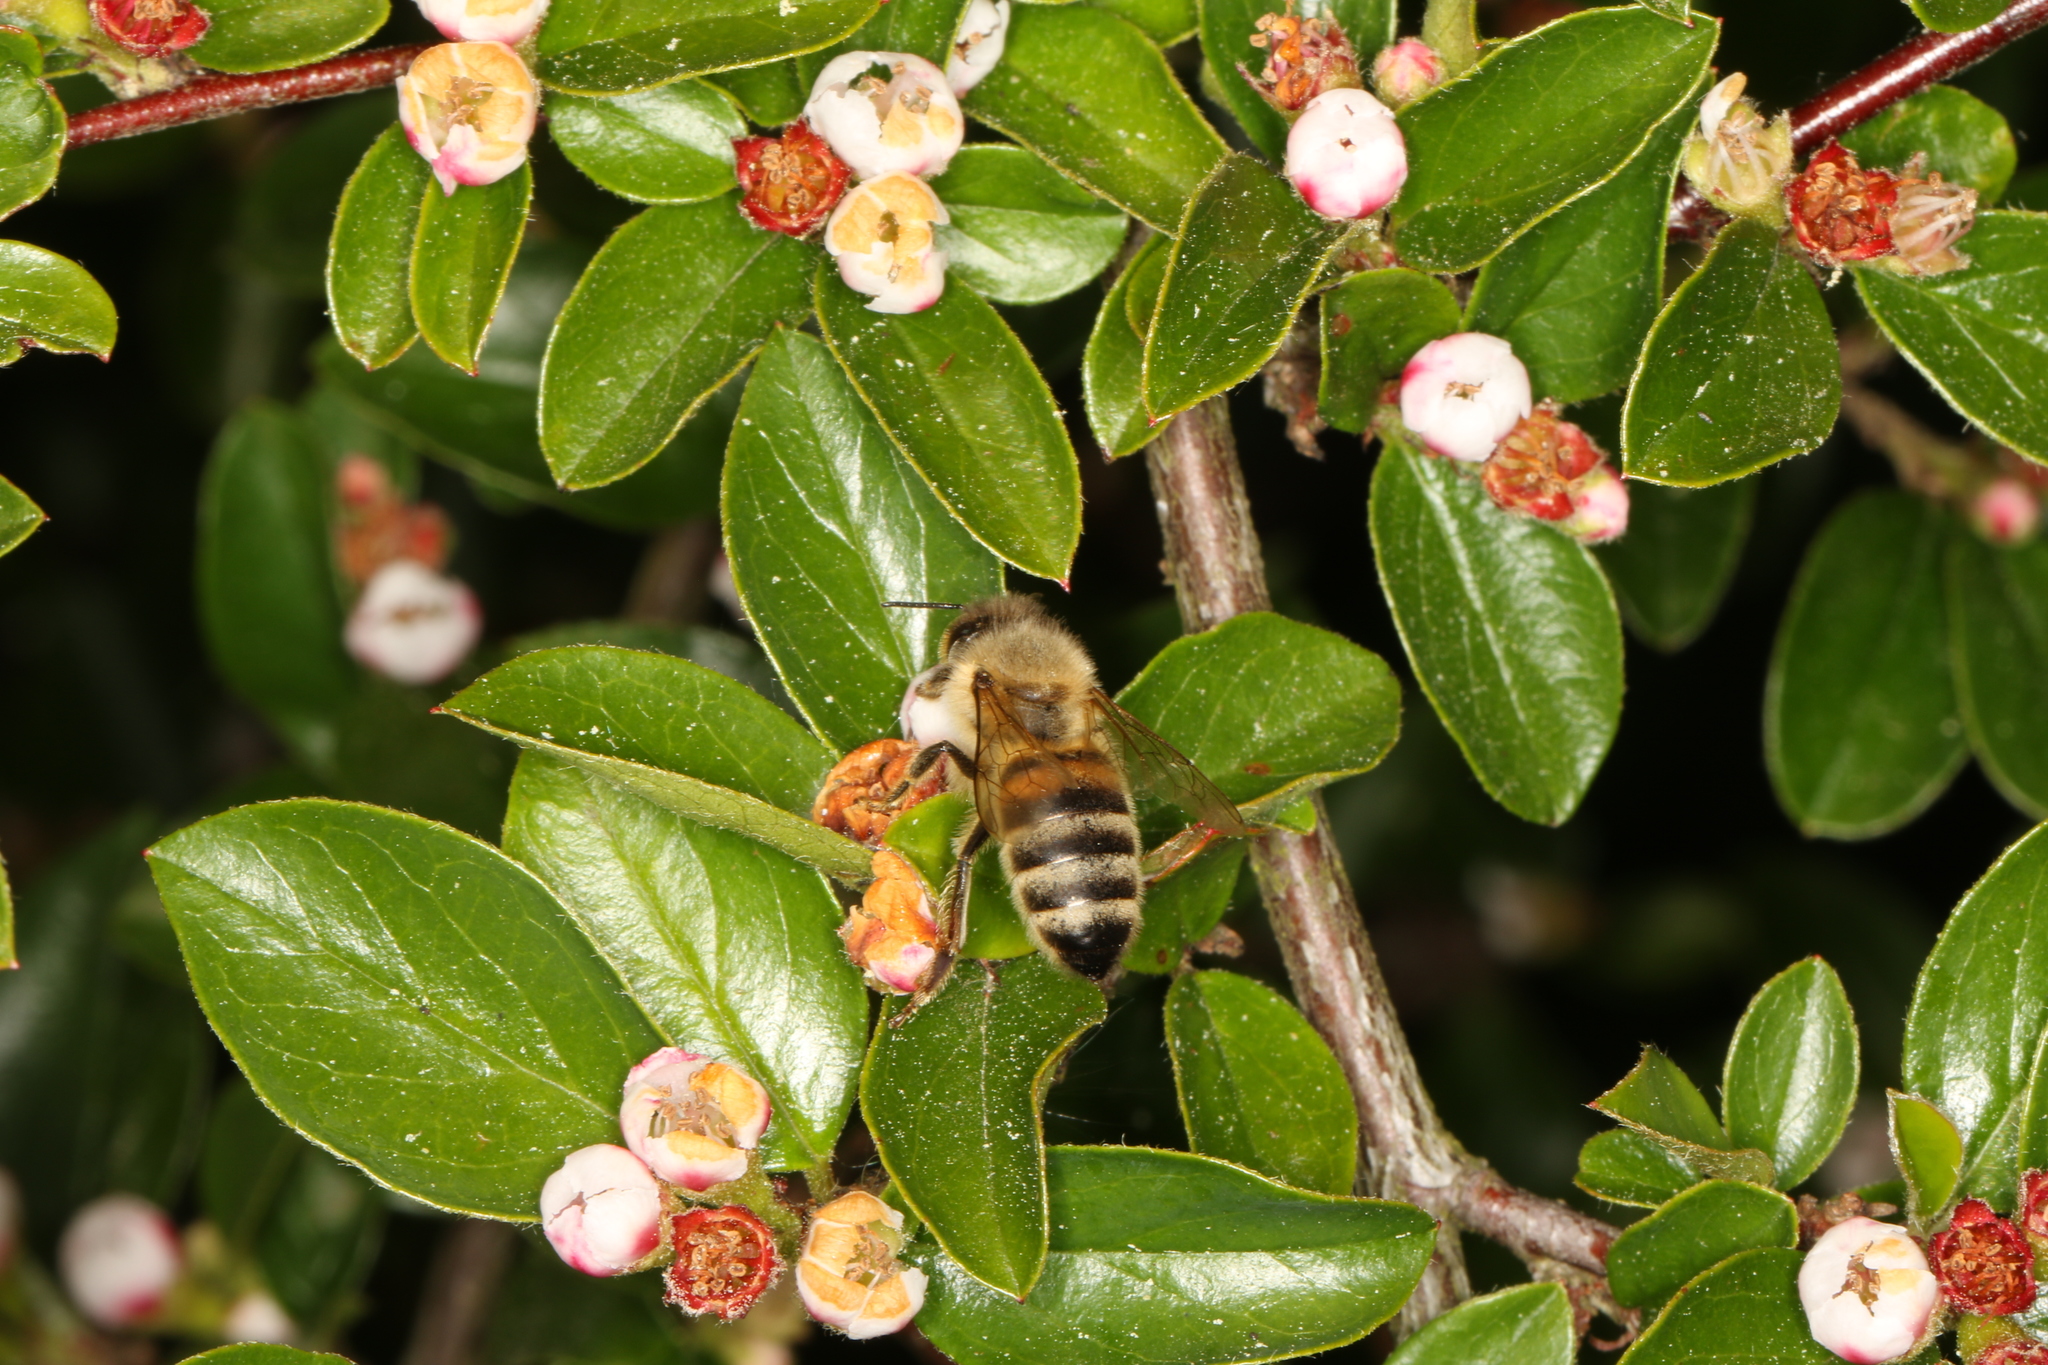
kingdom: Animalia
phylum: Arthropoda
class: Insecta
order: Hymenoptera
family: Apidae
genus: Apis
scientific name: Apis mellifera
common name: Honey bee
